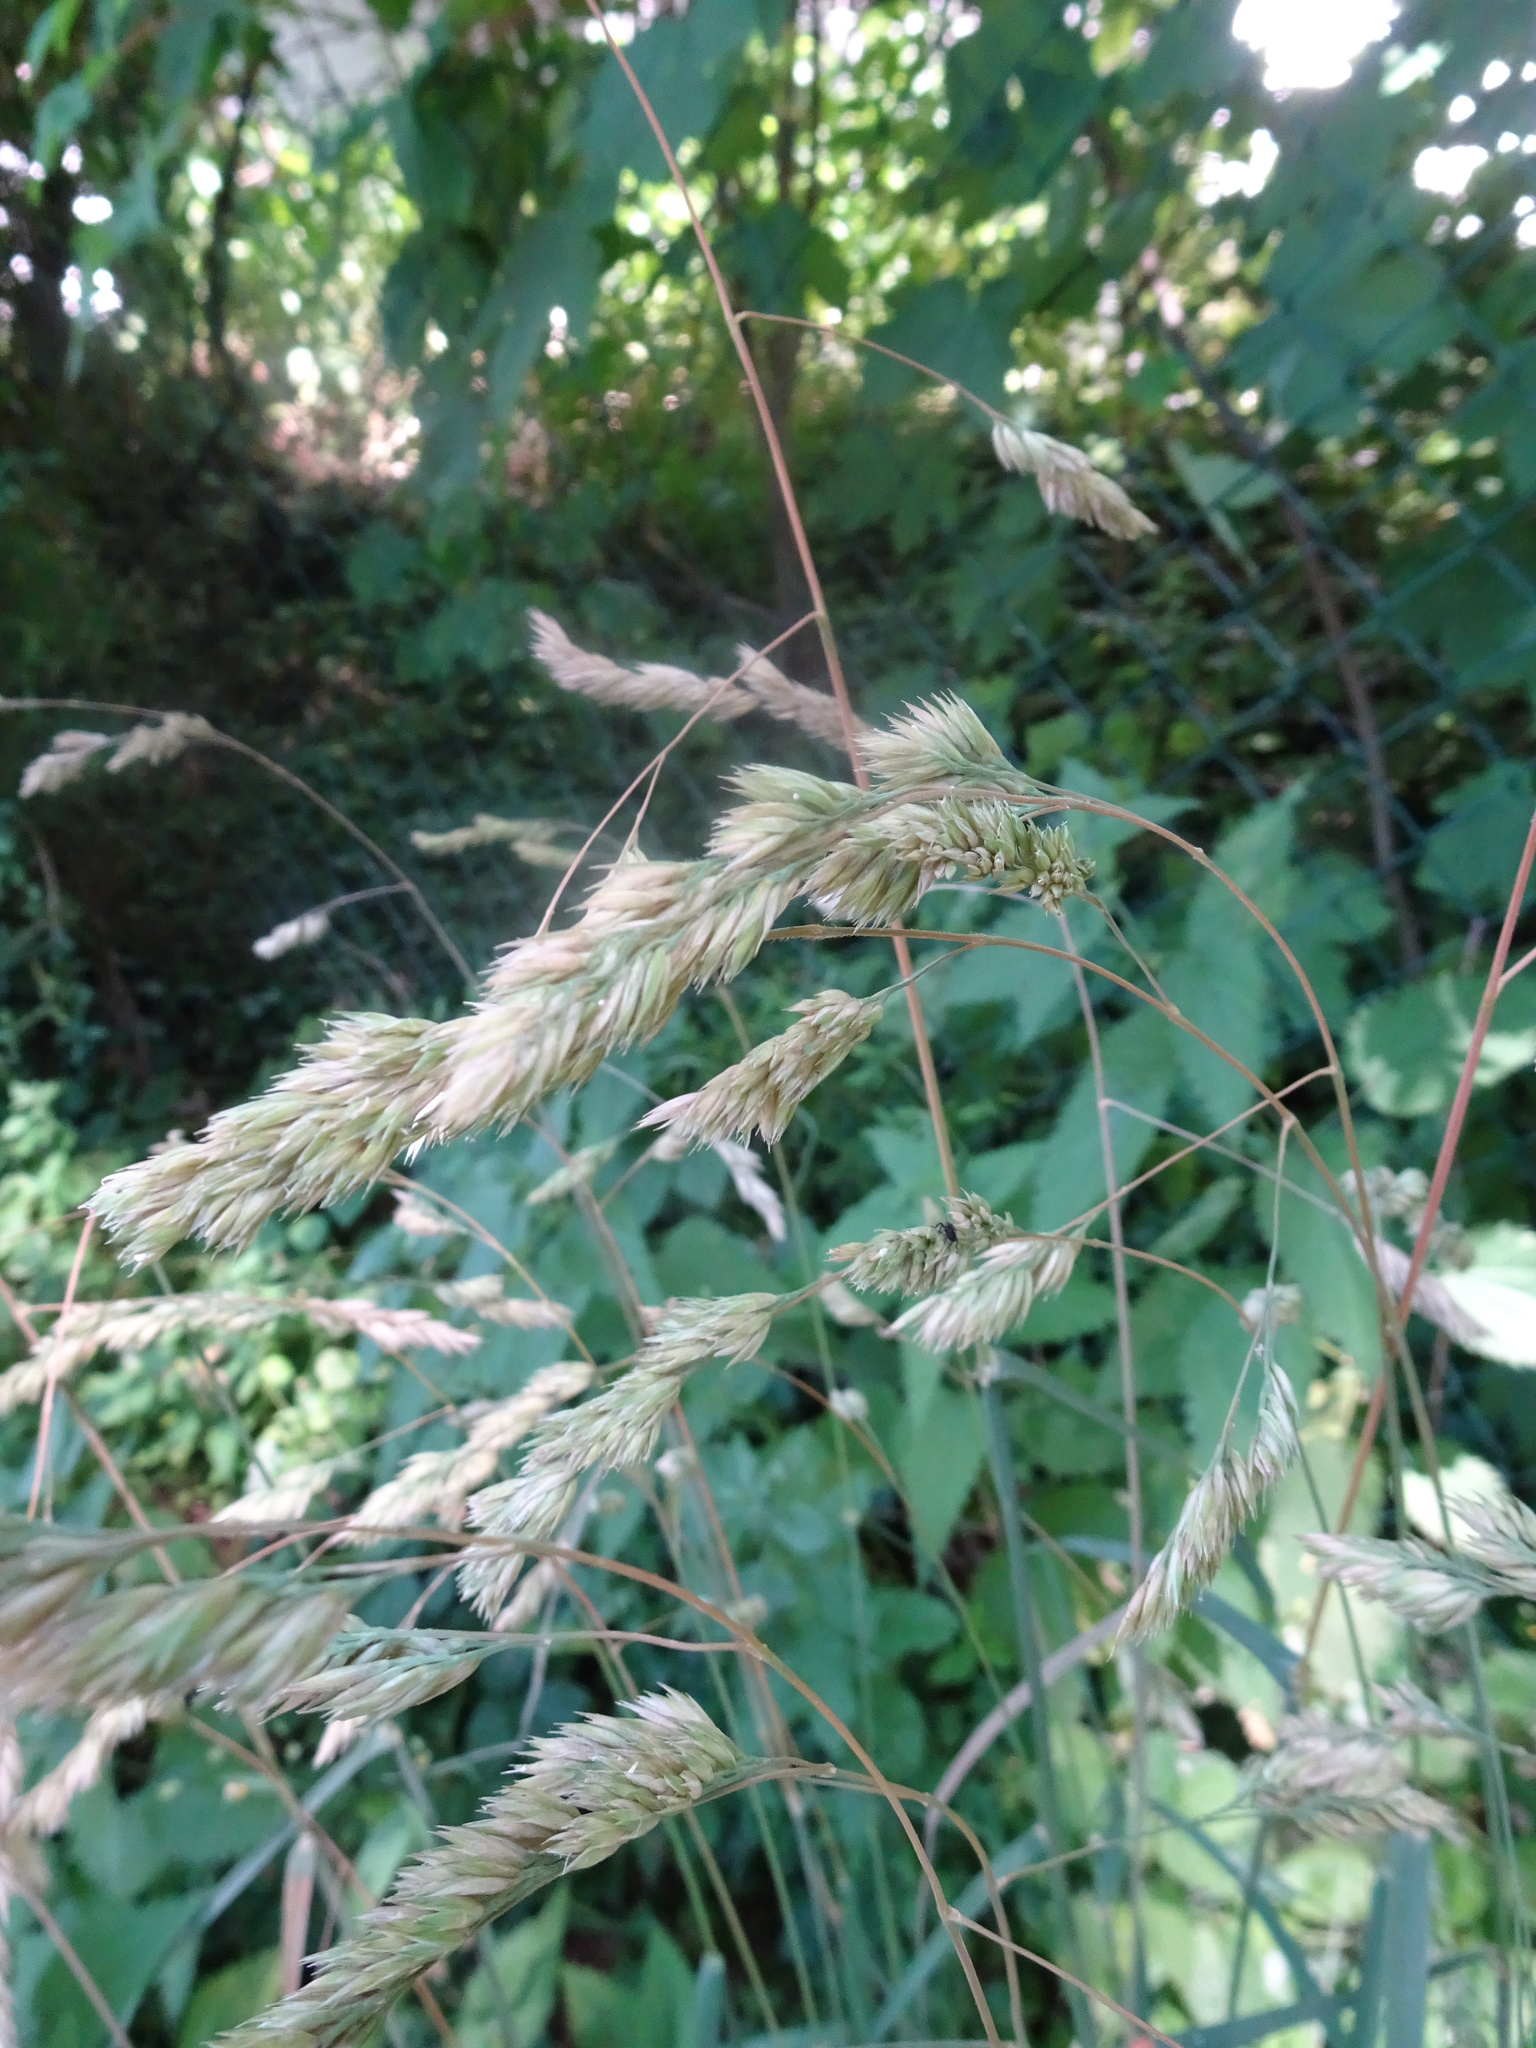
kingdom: Plantae
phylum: Tracheophyta
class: Liliopsida
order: Poales
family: Poaceae
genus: Dactylis
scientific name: Dactylis glomerata
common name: Orchardgrass
